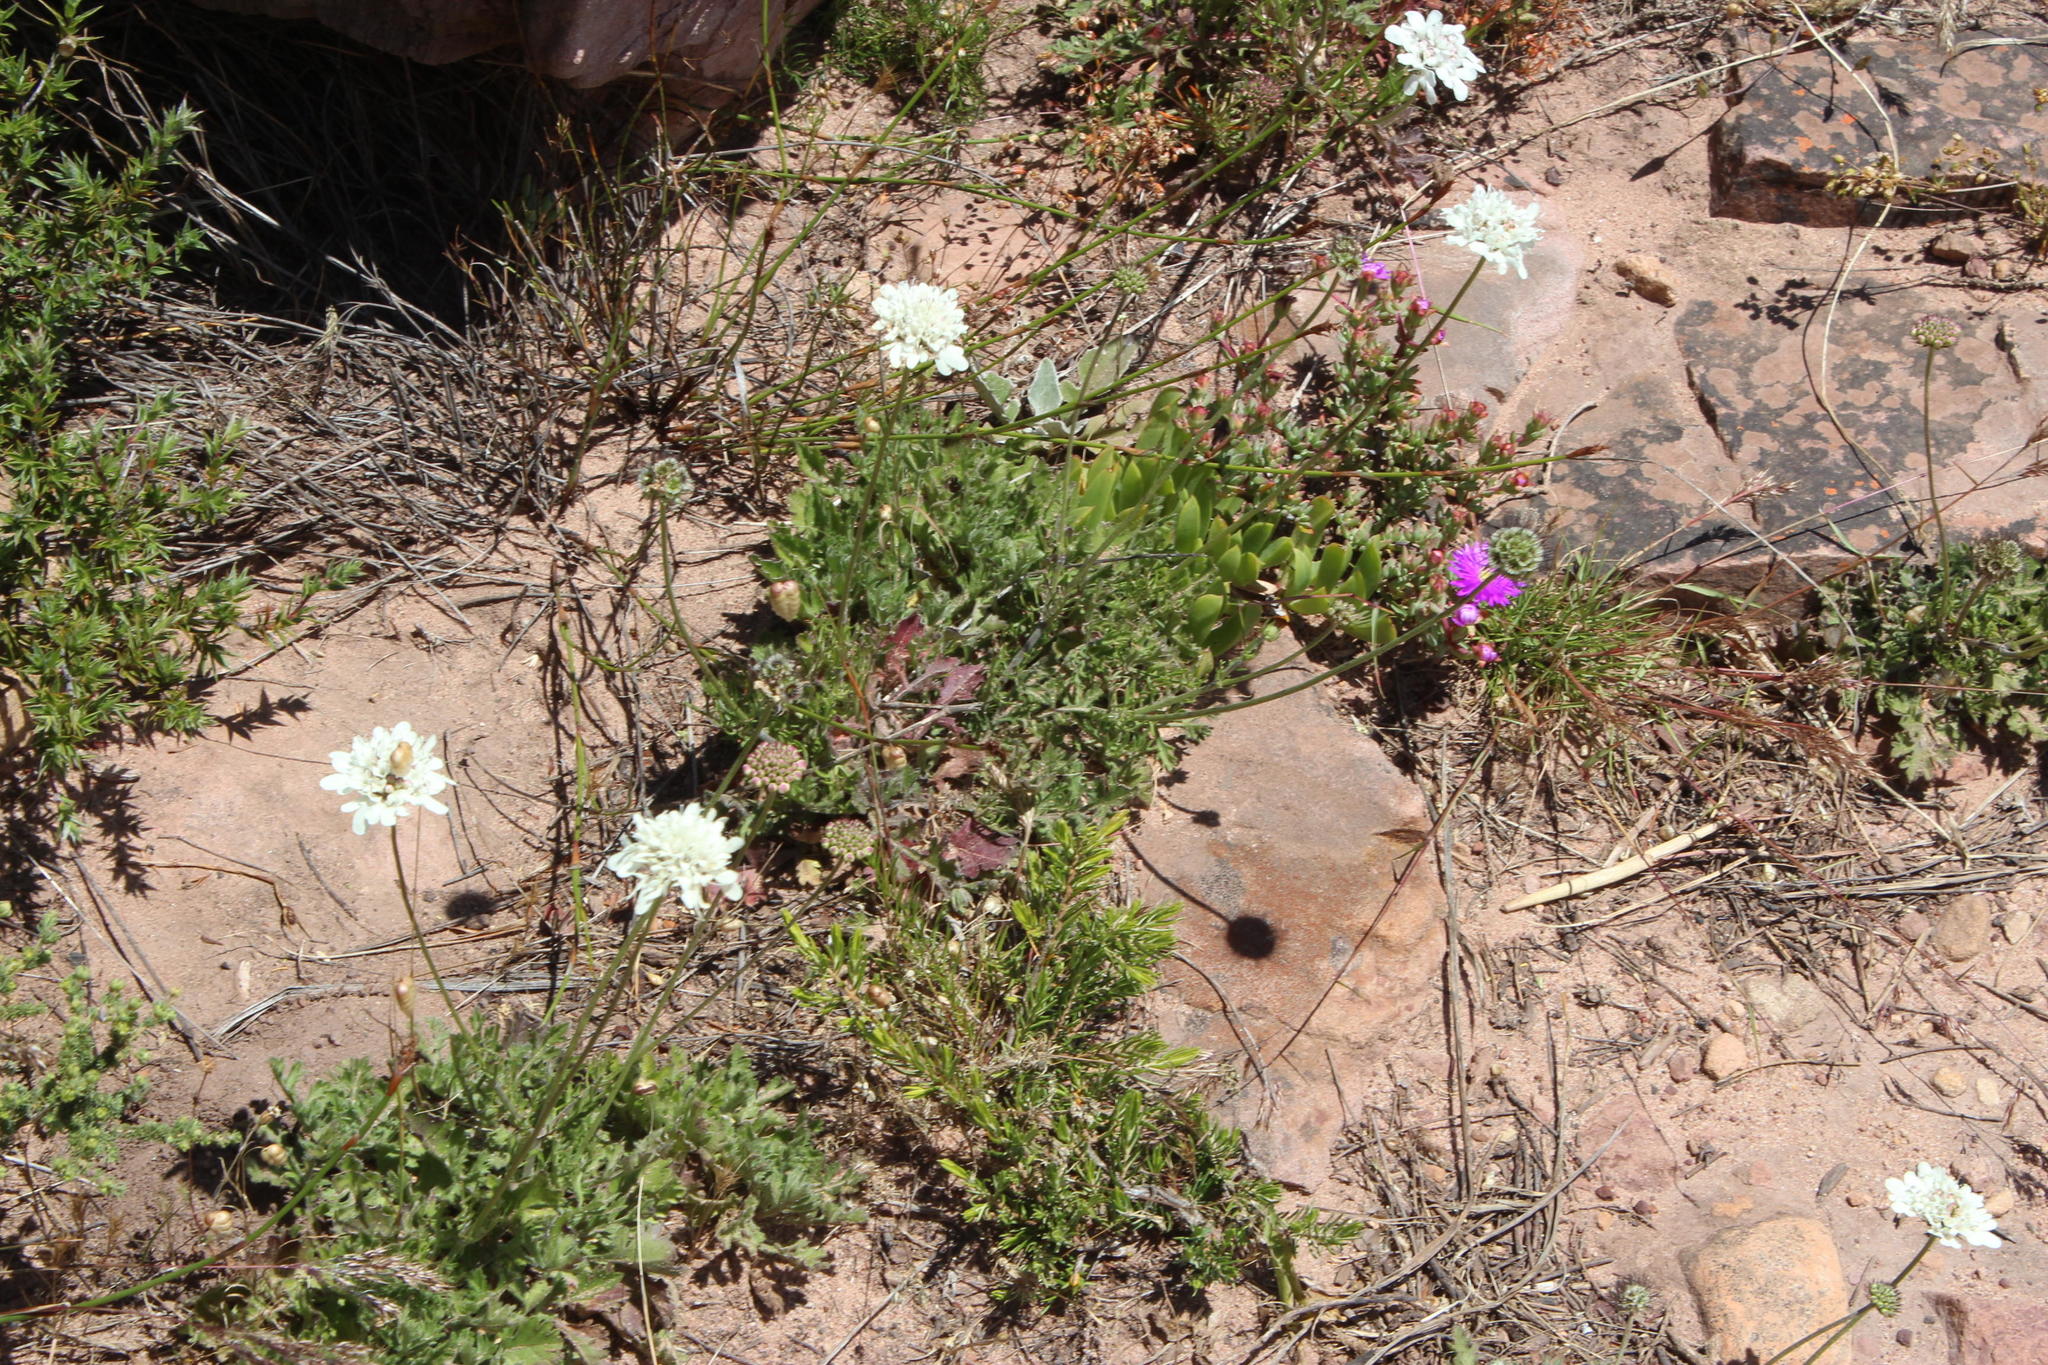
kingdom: Plantae
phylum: Tracheophyta
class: Magnoliopsida
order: Dipsacales
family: Caprifoliaceae
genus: Scabiosa
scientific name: Scabiosa columbaria
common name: Small scabious
